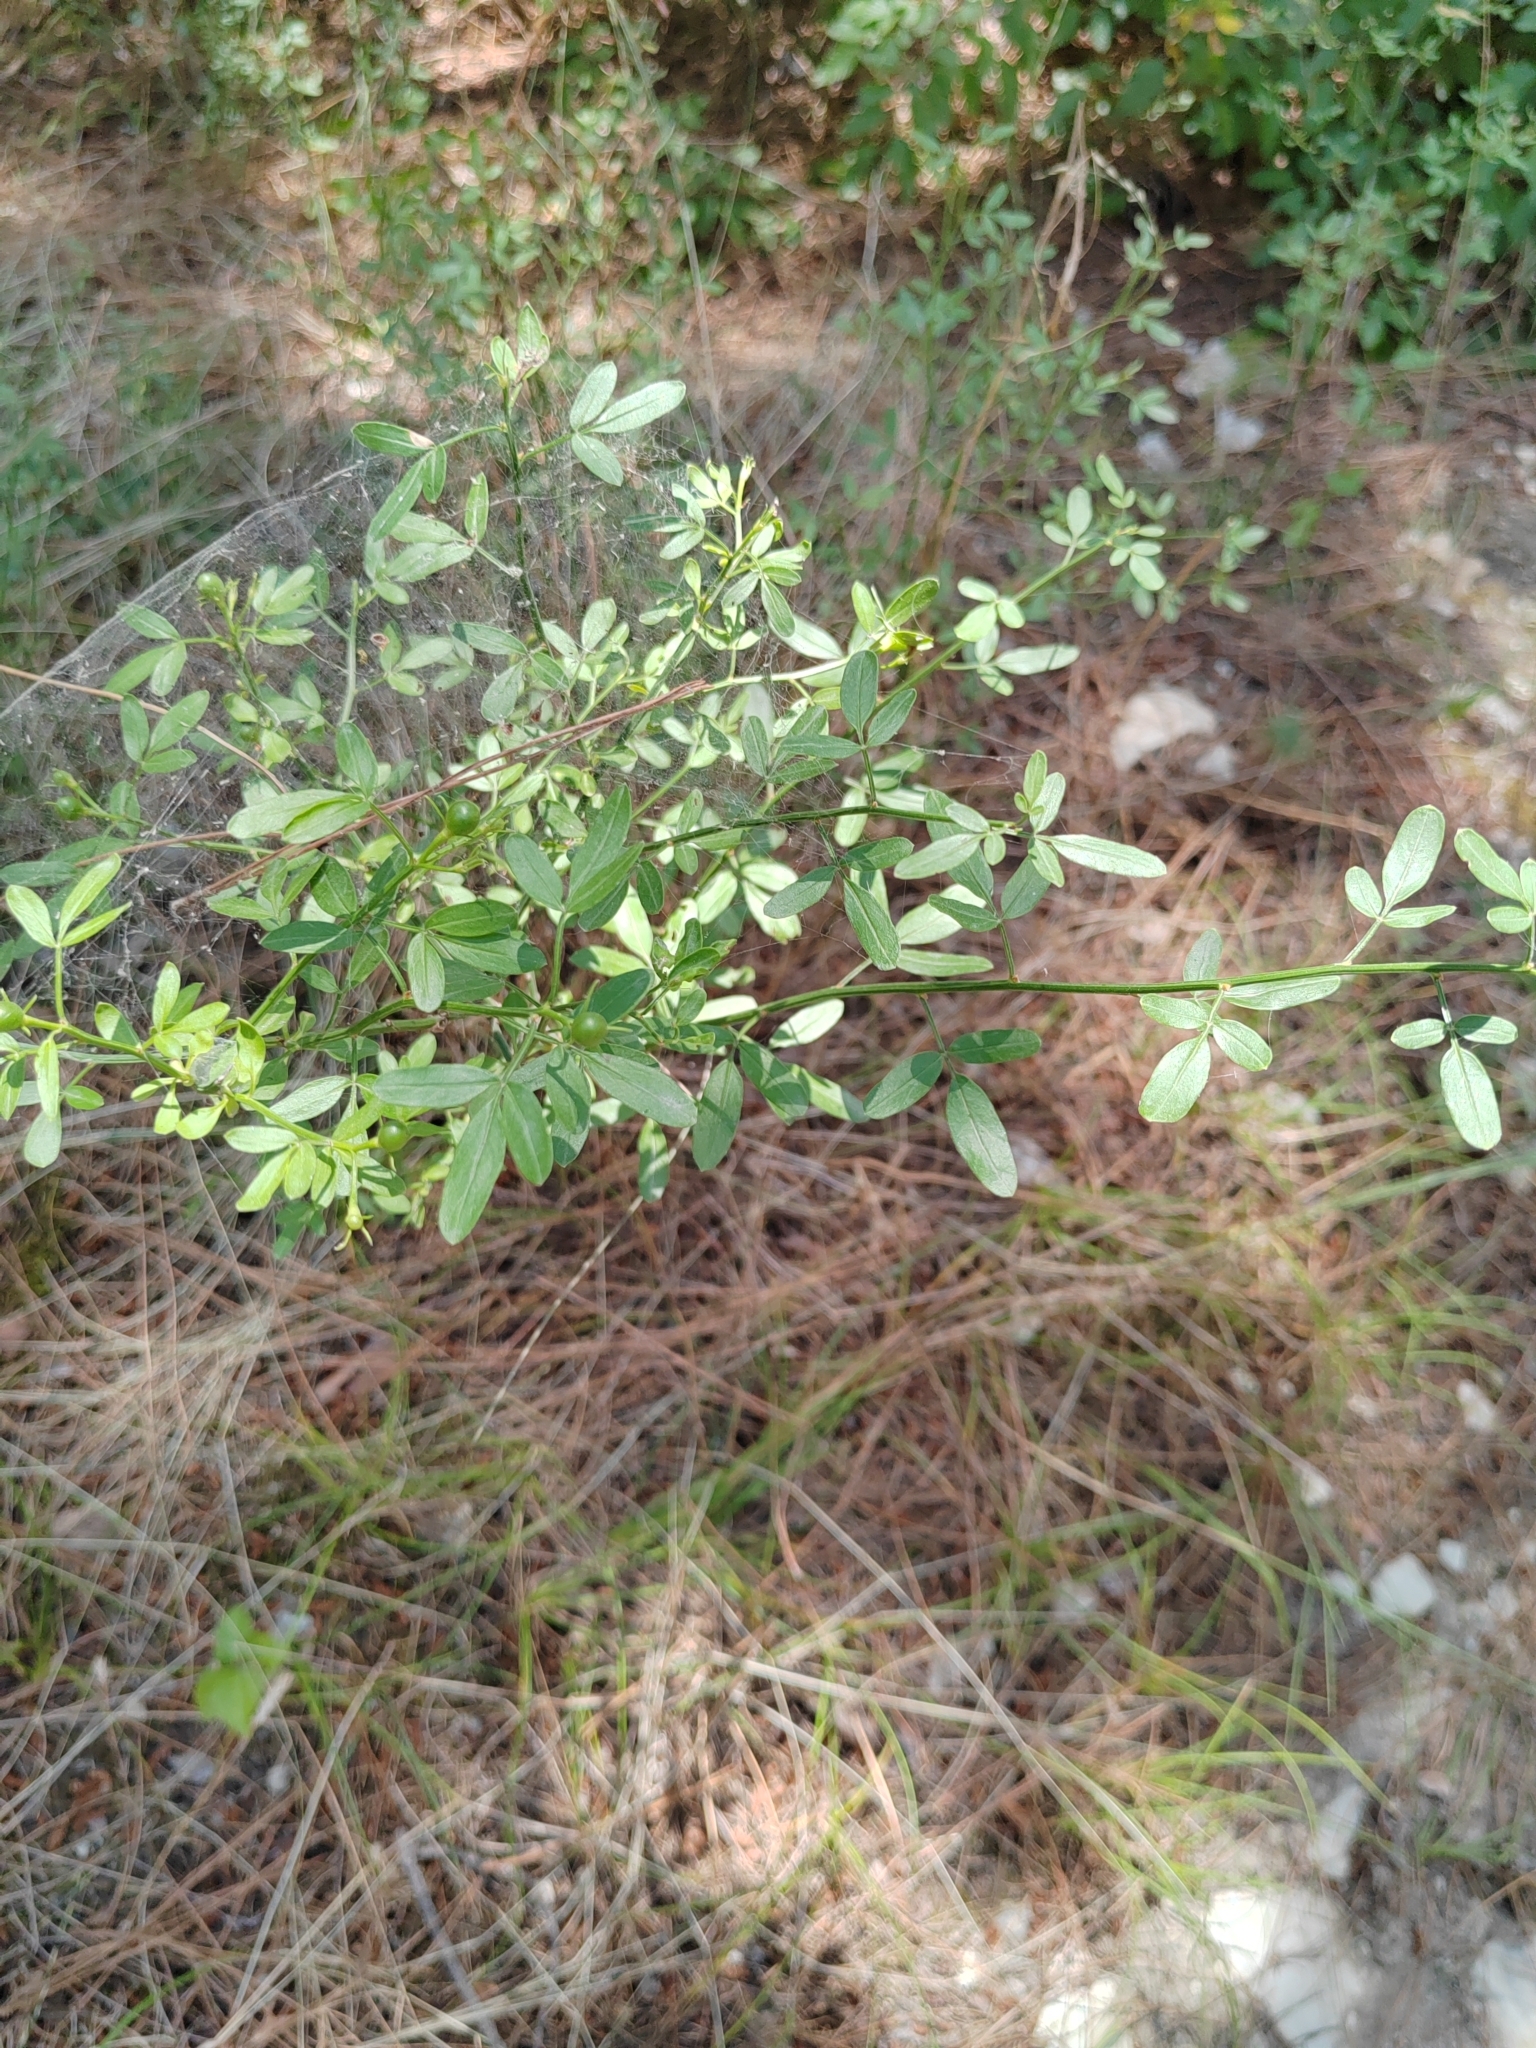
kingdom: Plantae
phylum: Tracheophyta
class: Magnoliopsida
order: Lamiales
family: Oleaceae
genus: Chrysojasminum
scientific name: Chrysojasminum fruticans
